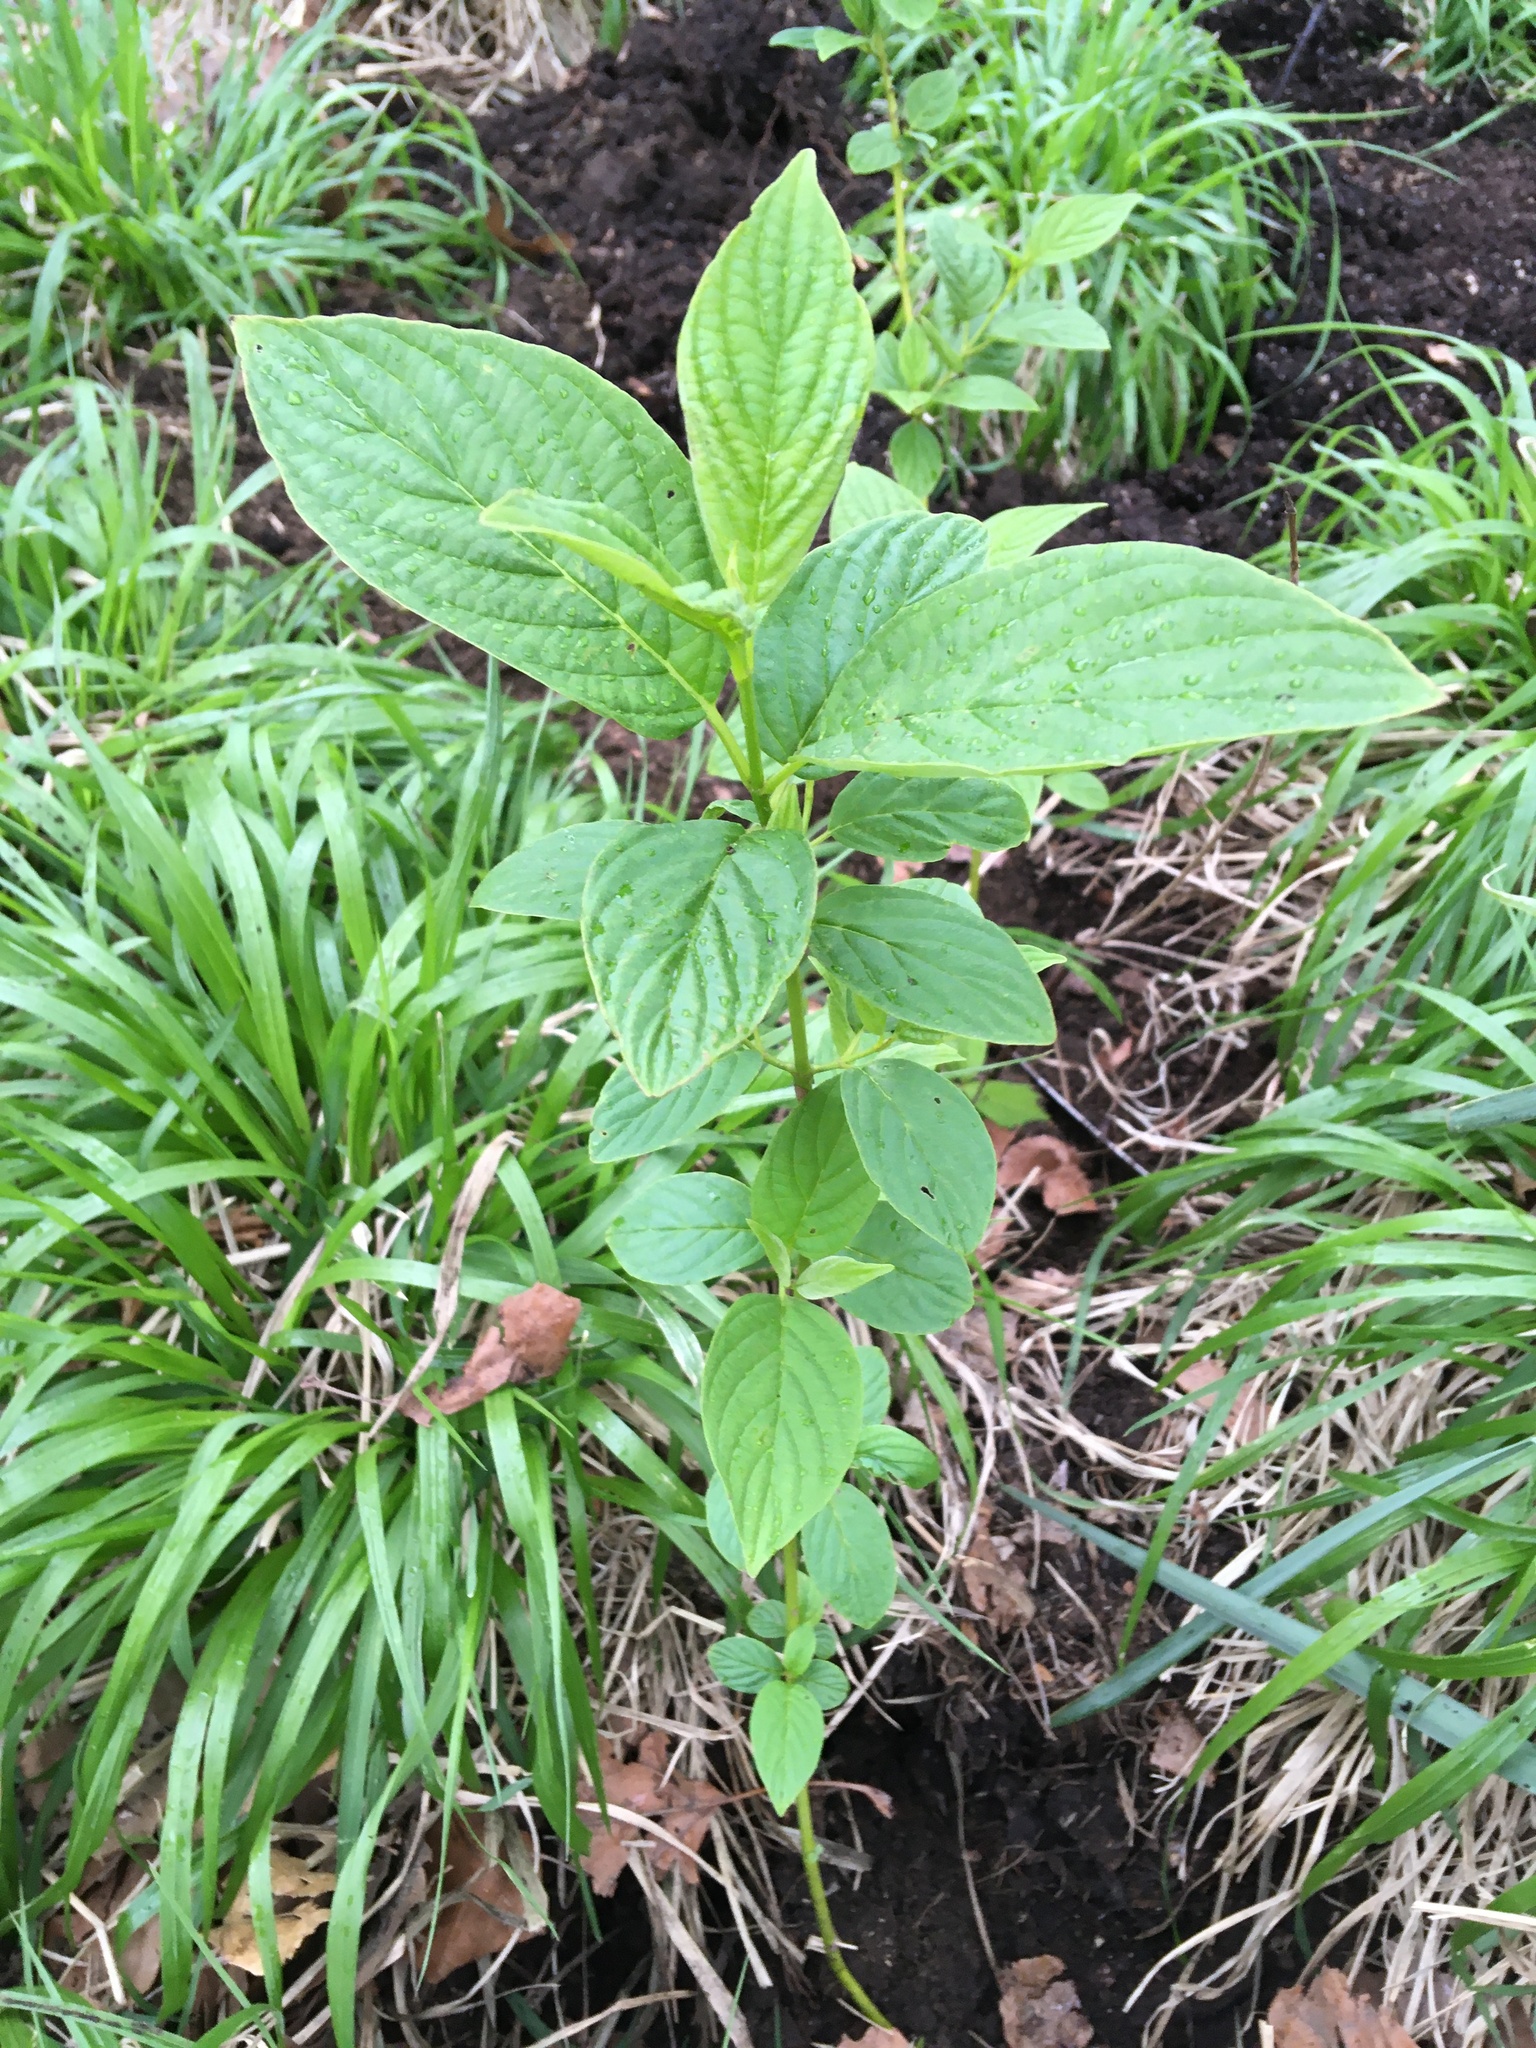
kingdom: Plantae
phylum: Tracheophyta
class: Magnoliopsida
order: Cornales
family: Cornaceae
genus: Cornus
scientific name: Cornus sericea
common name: Red-osier dogwood
